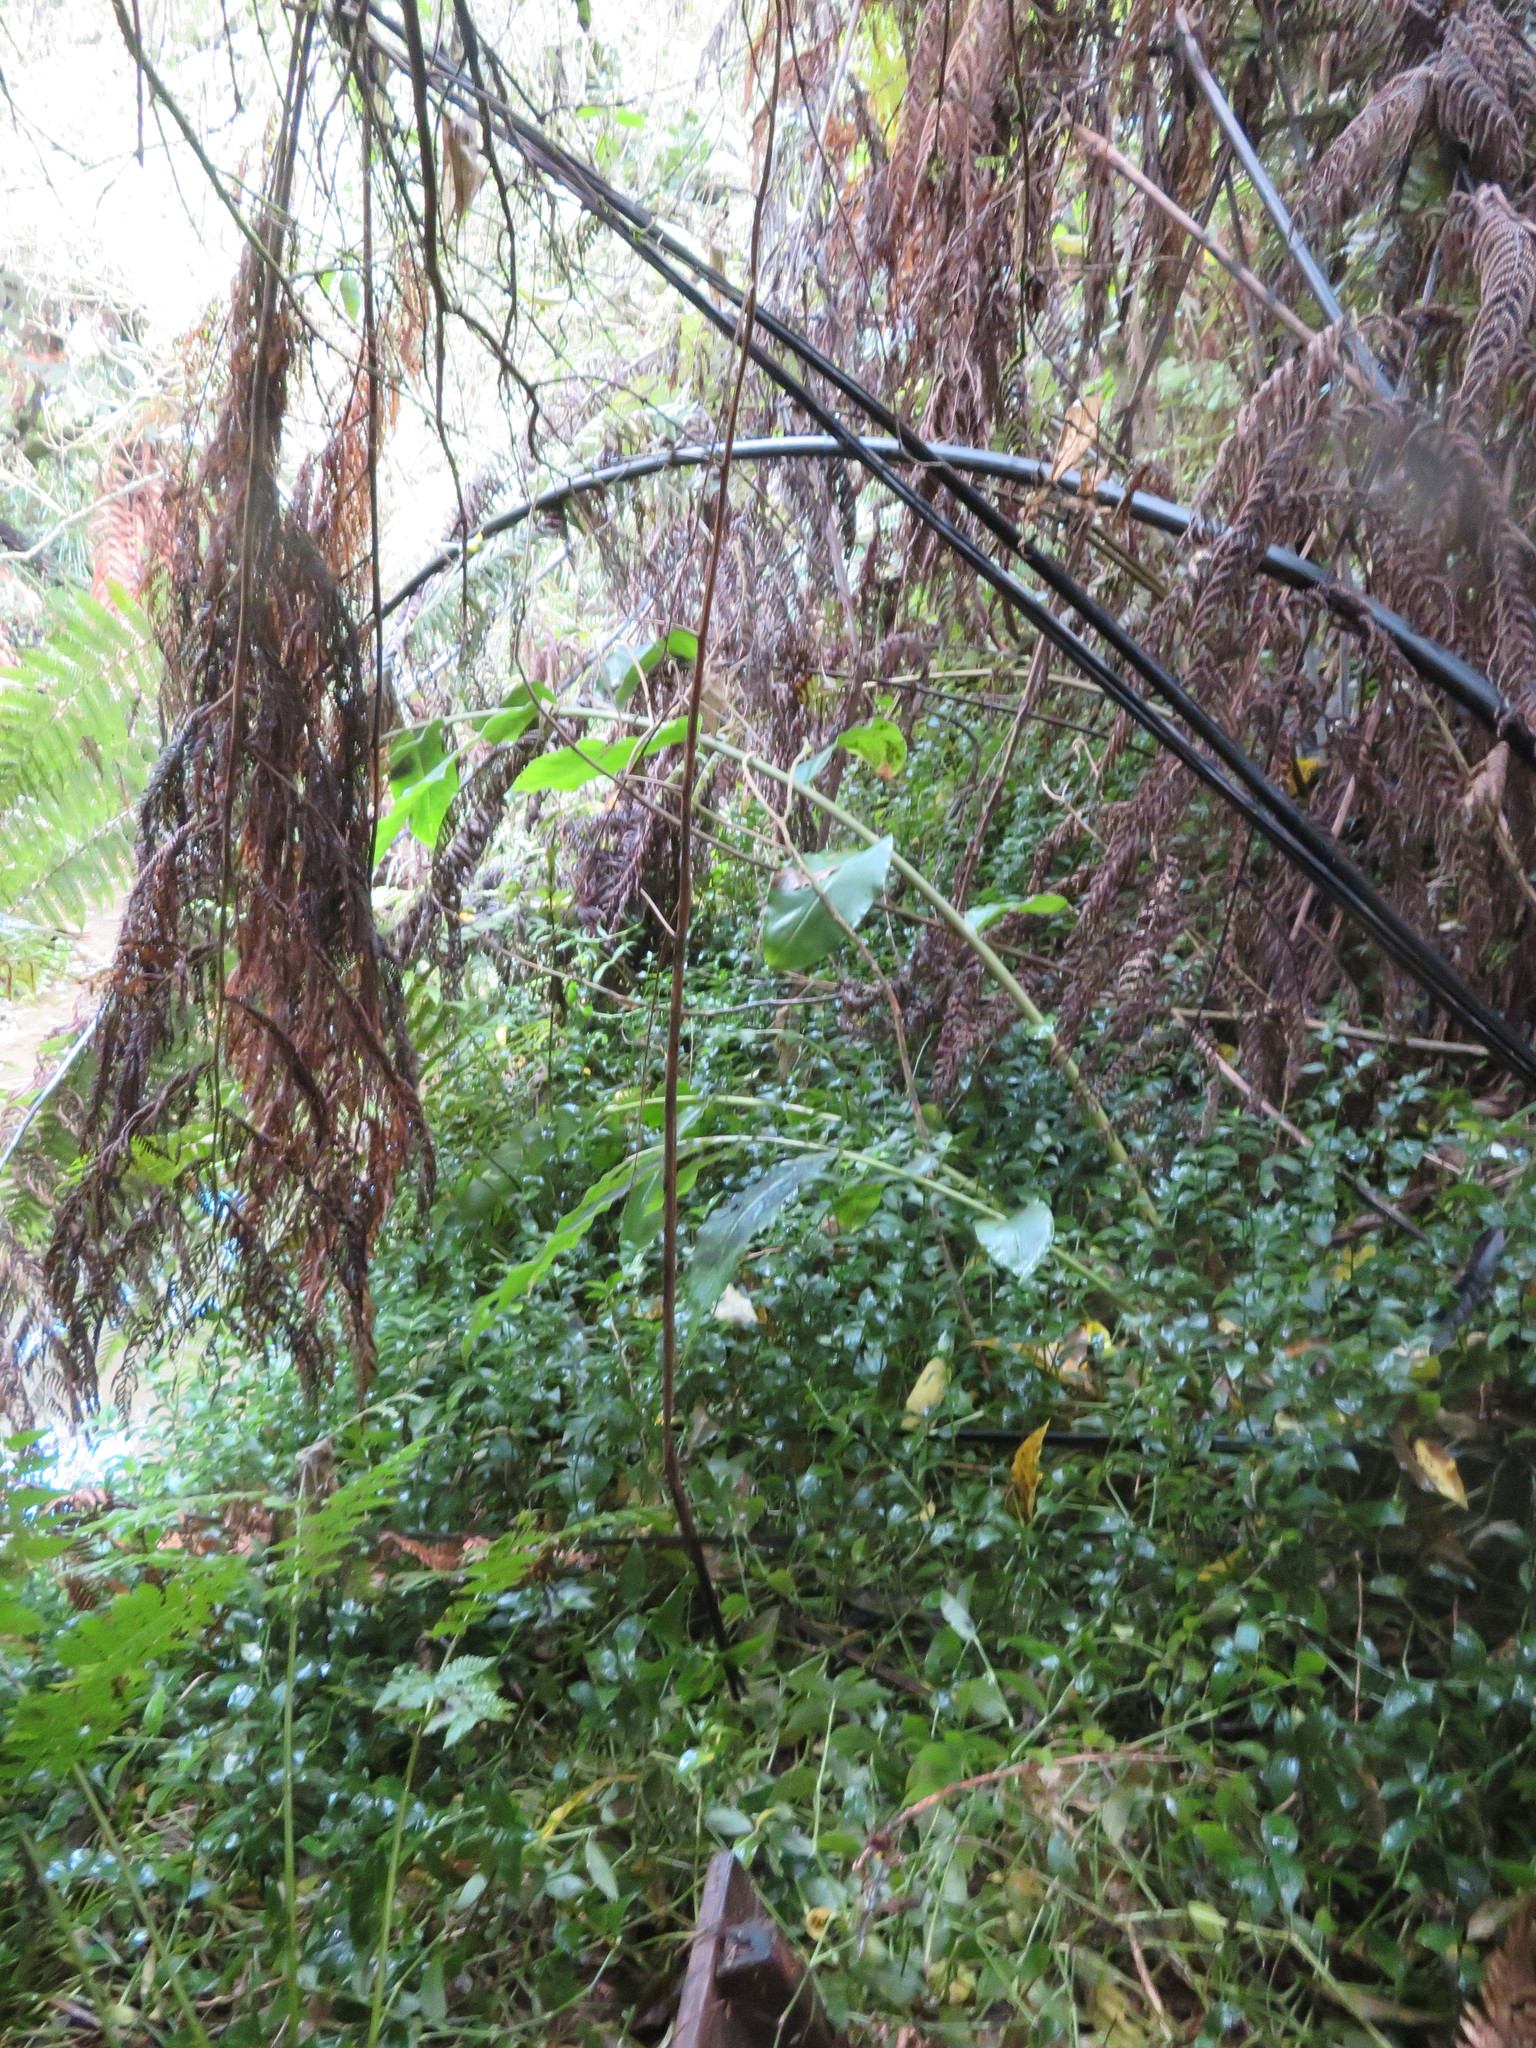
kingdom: Plantae
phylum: Tracheophyta
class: Liliopsida
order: Zingiberales
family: Zingiberaceae
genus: Hedychium
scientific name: Hedychium gardnerianum
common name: Himalayan ginger
